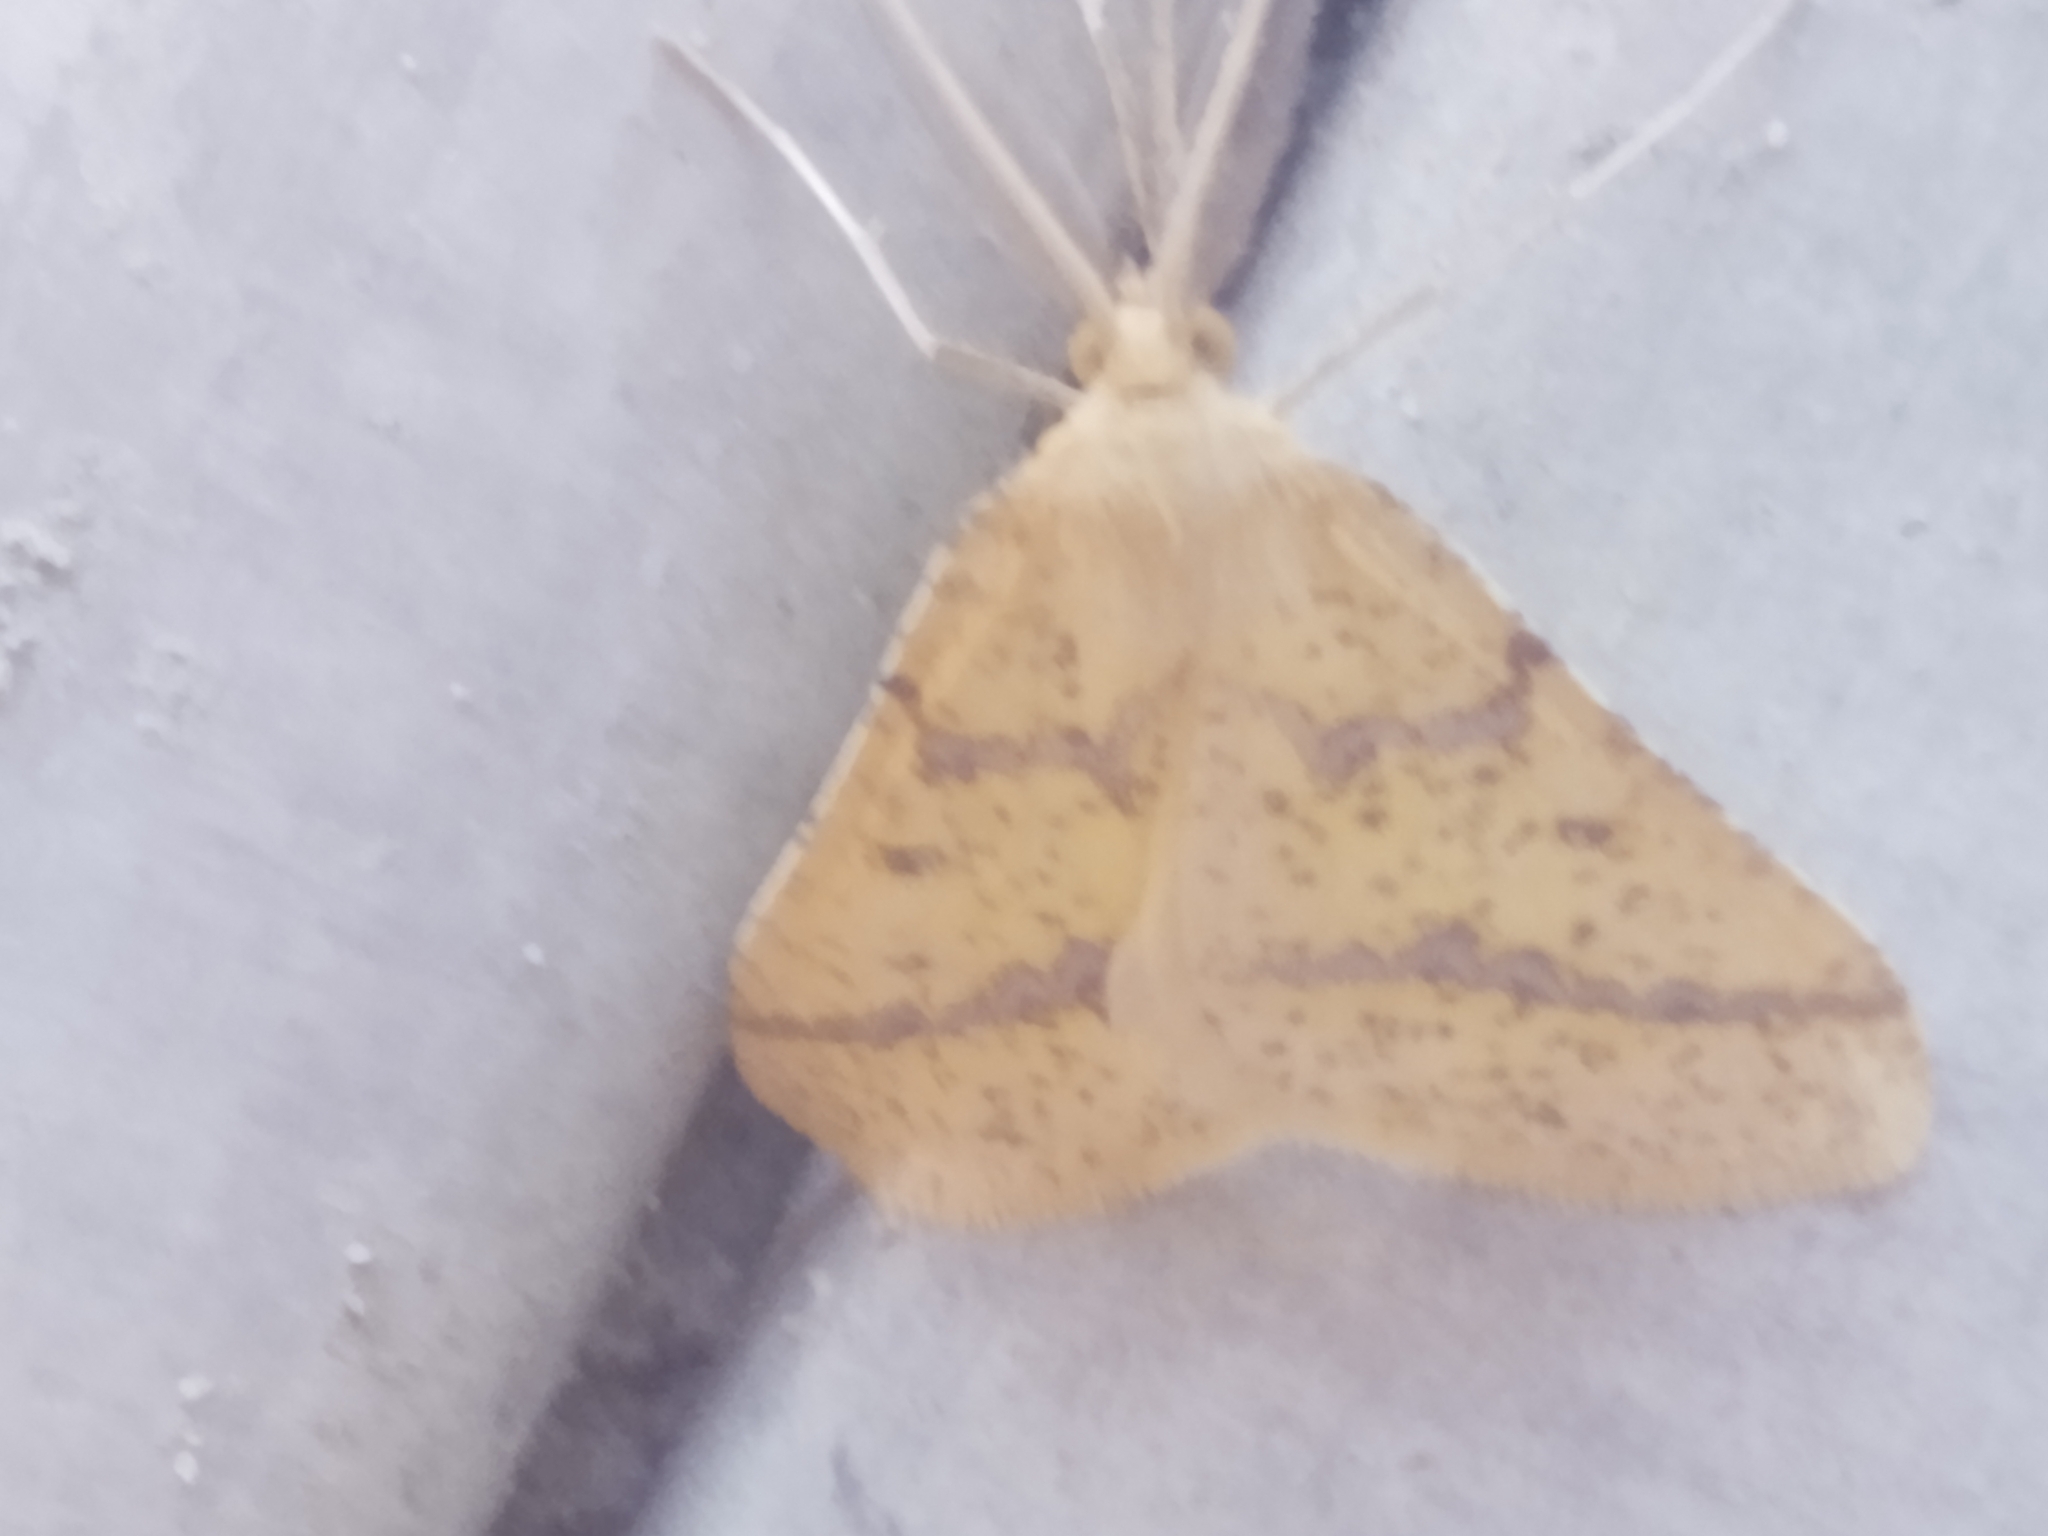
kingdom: Animalia
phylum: Arthropoda
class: Insecta
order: Lepidoptera
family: Geometridae
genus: Aspitates
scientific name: Aspitates ochrearia
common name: Yellow belle
